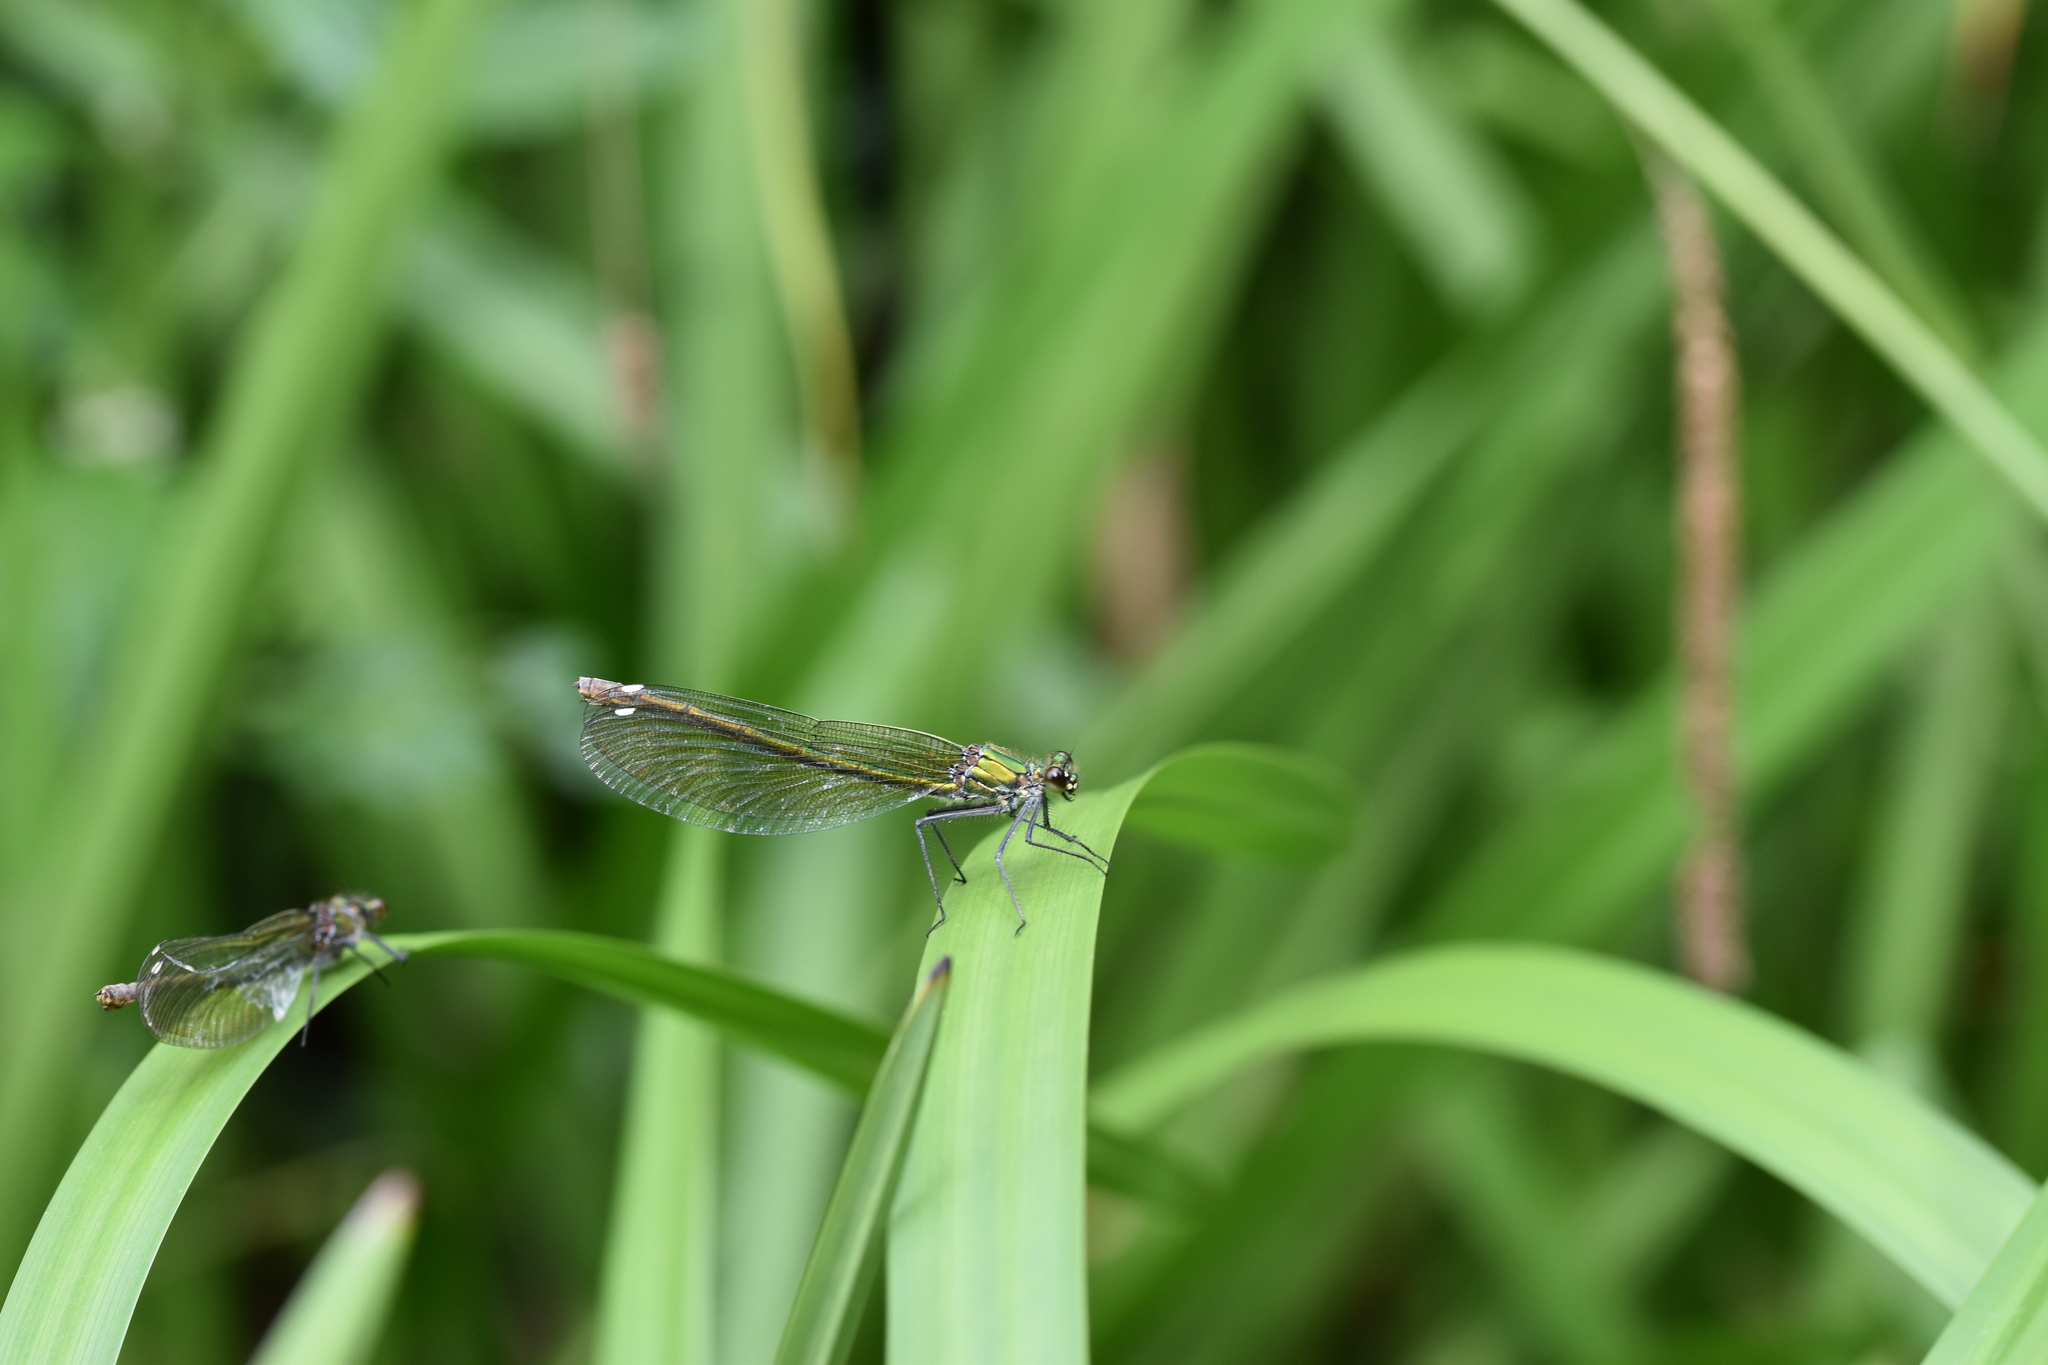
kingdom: Animalia
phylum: Arthropoda
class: Insecta
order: Odonata
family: Calopterygidae
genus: Calopteryx
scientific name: Calopteryx splendens
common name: Banded demoiselle
